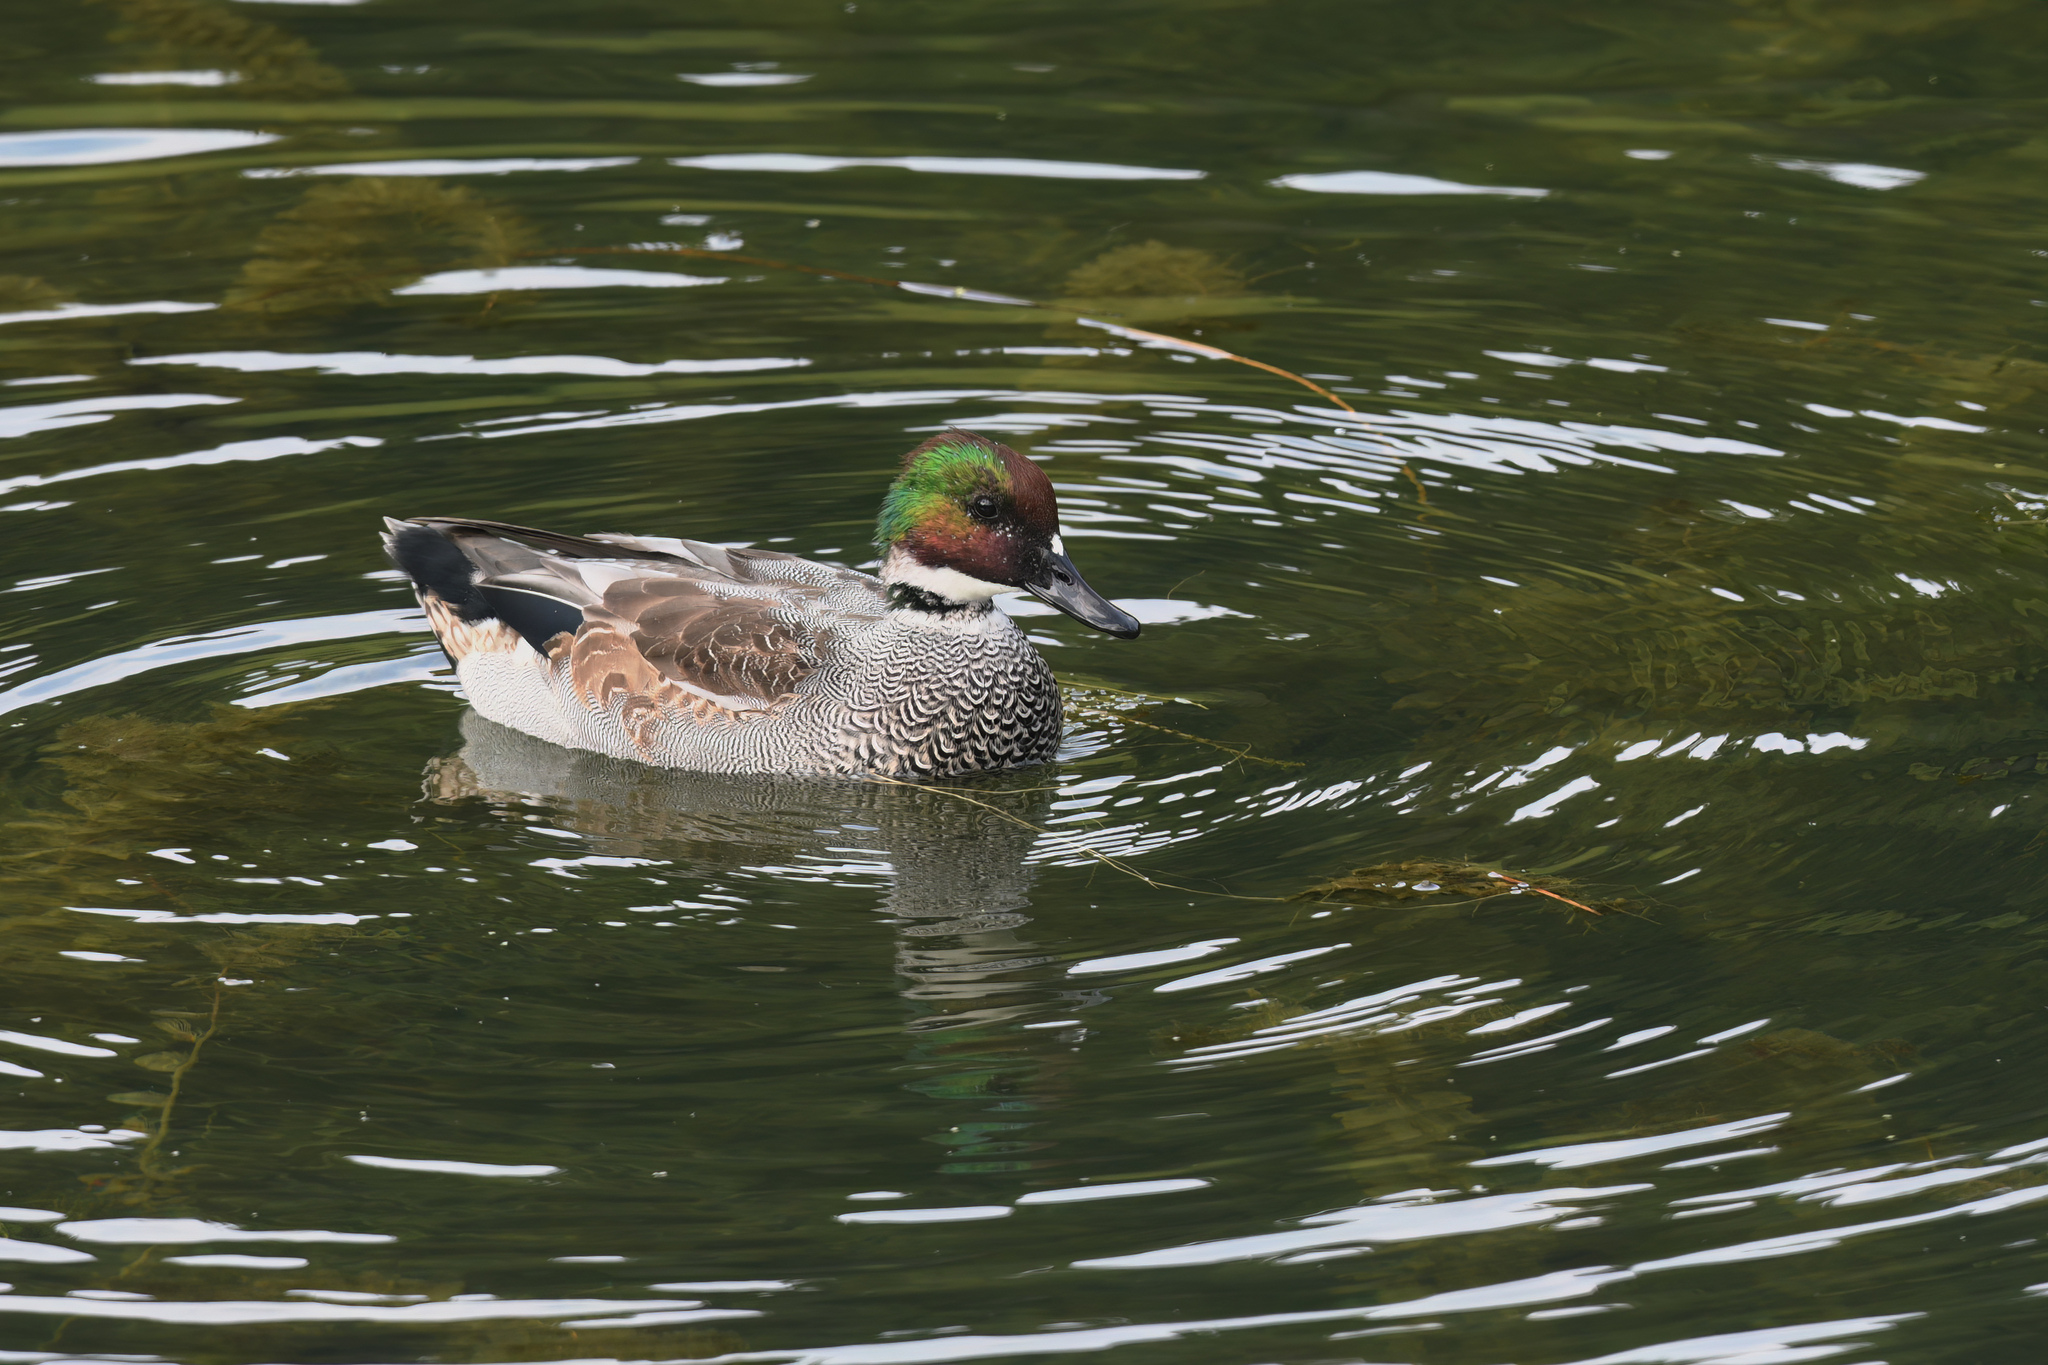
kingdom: Animalia
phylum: Chordata
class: Aves
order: Anseriformes
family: Anatidae
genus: Mareca
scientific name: Mareca falcata
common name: Falcated duck
